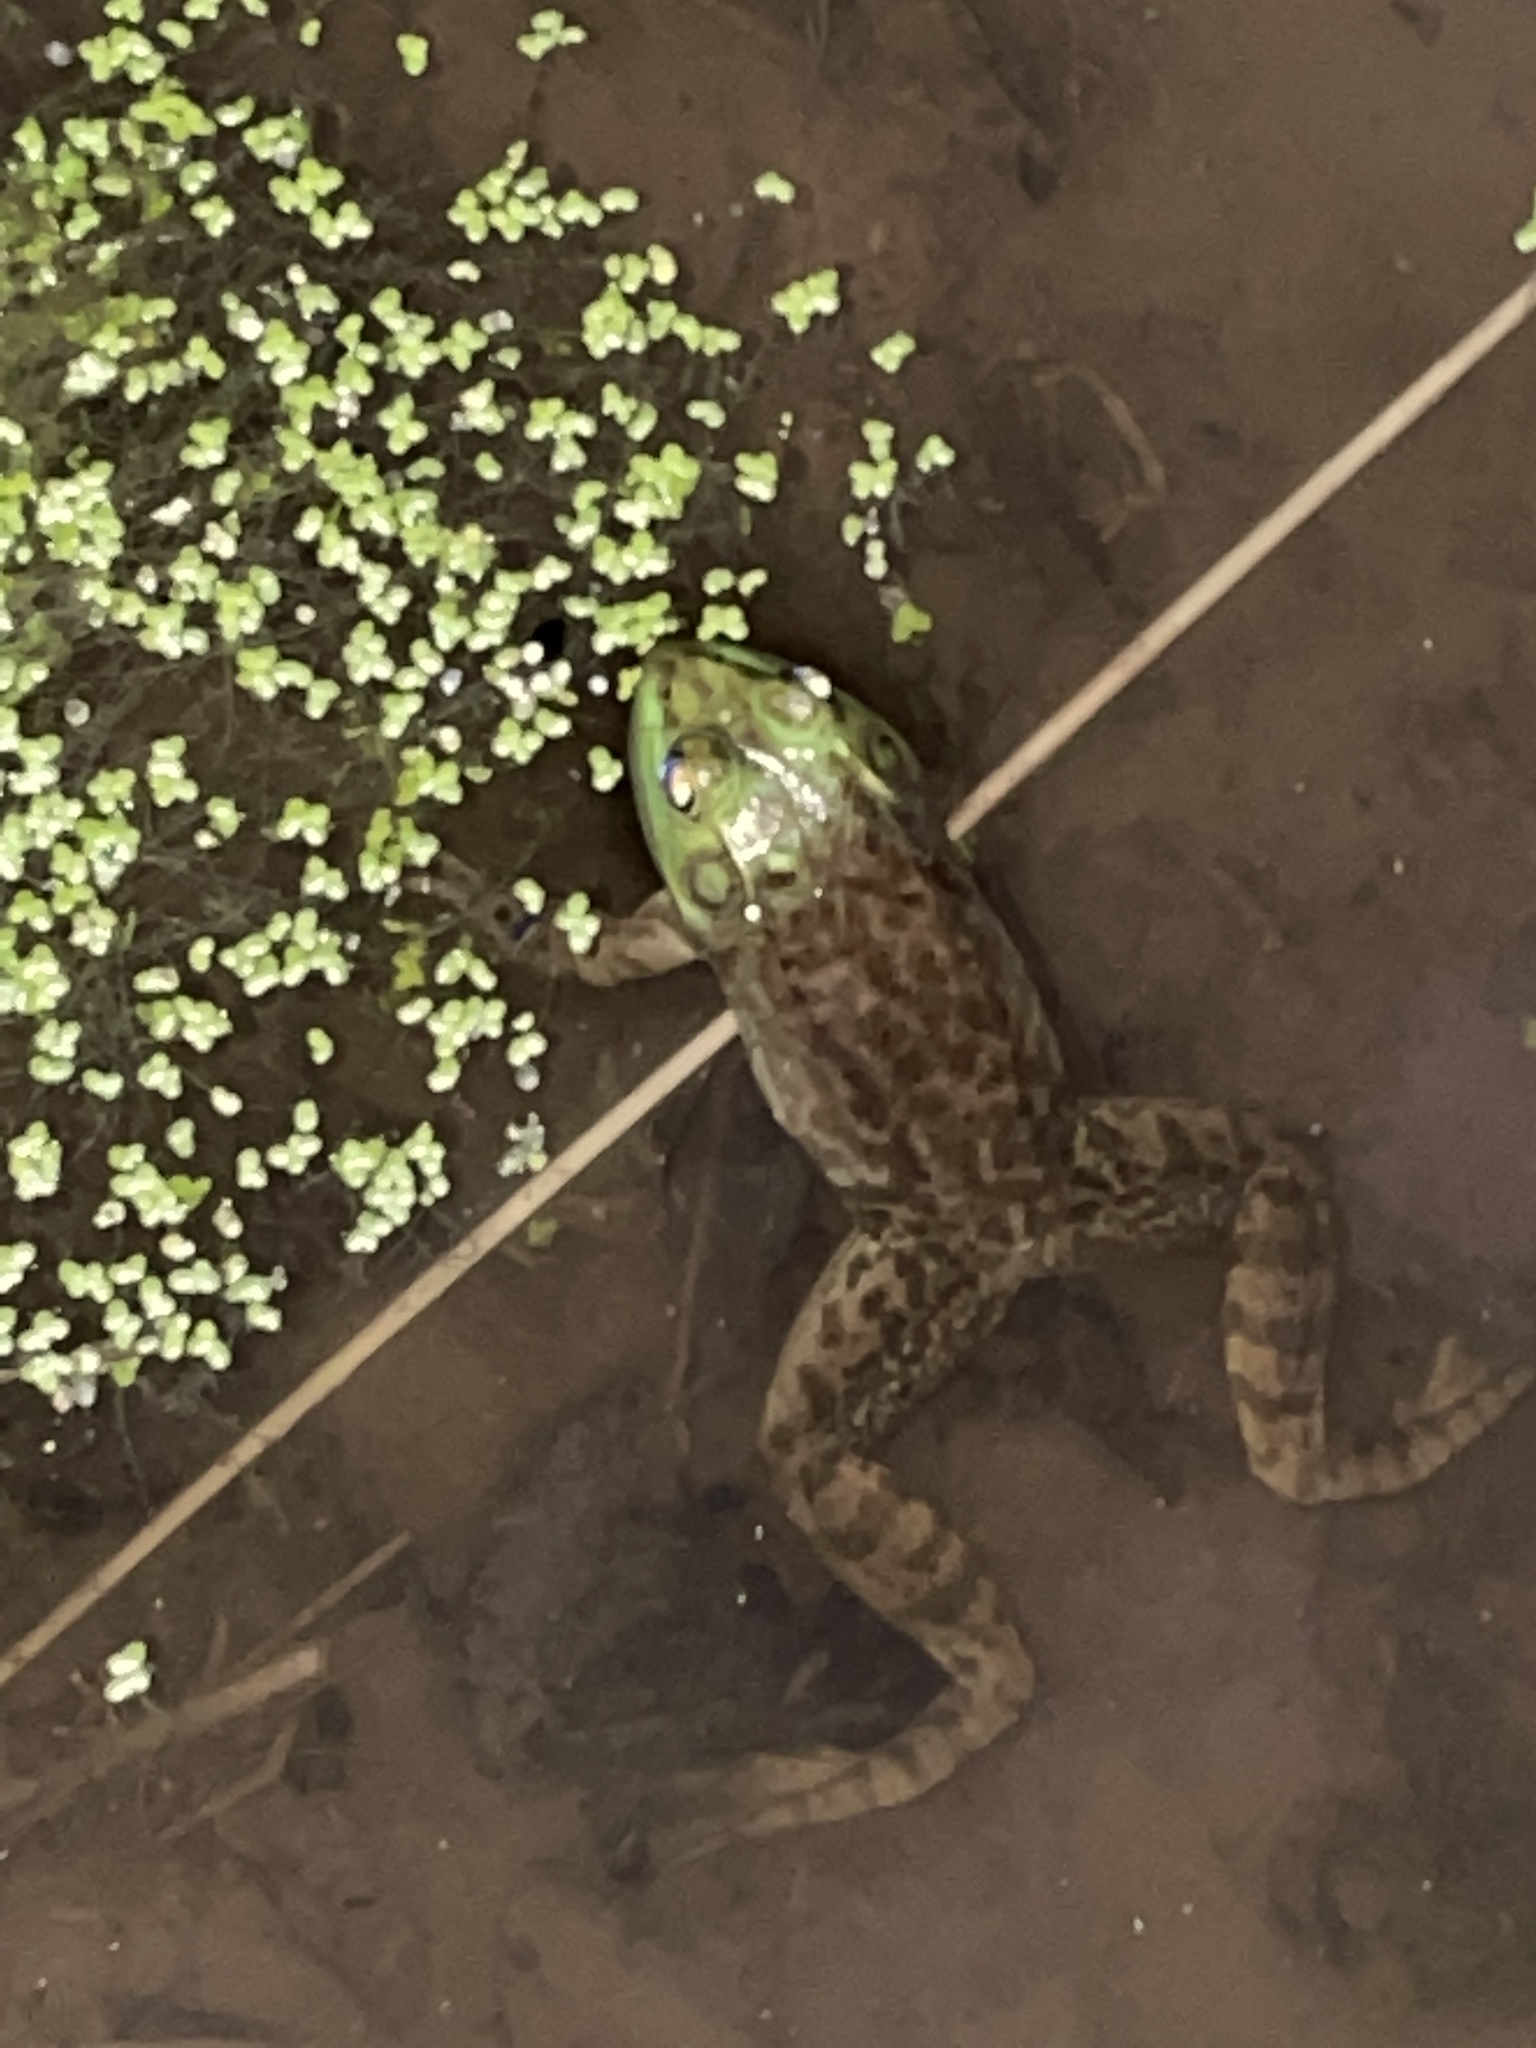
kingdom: Animalia
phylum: Chordata
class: Amphibia
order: Anura
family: Ranidae
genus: Lithobates
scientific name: Lithobates catesbeianus
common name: American bullfrog
